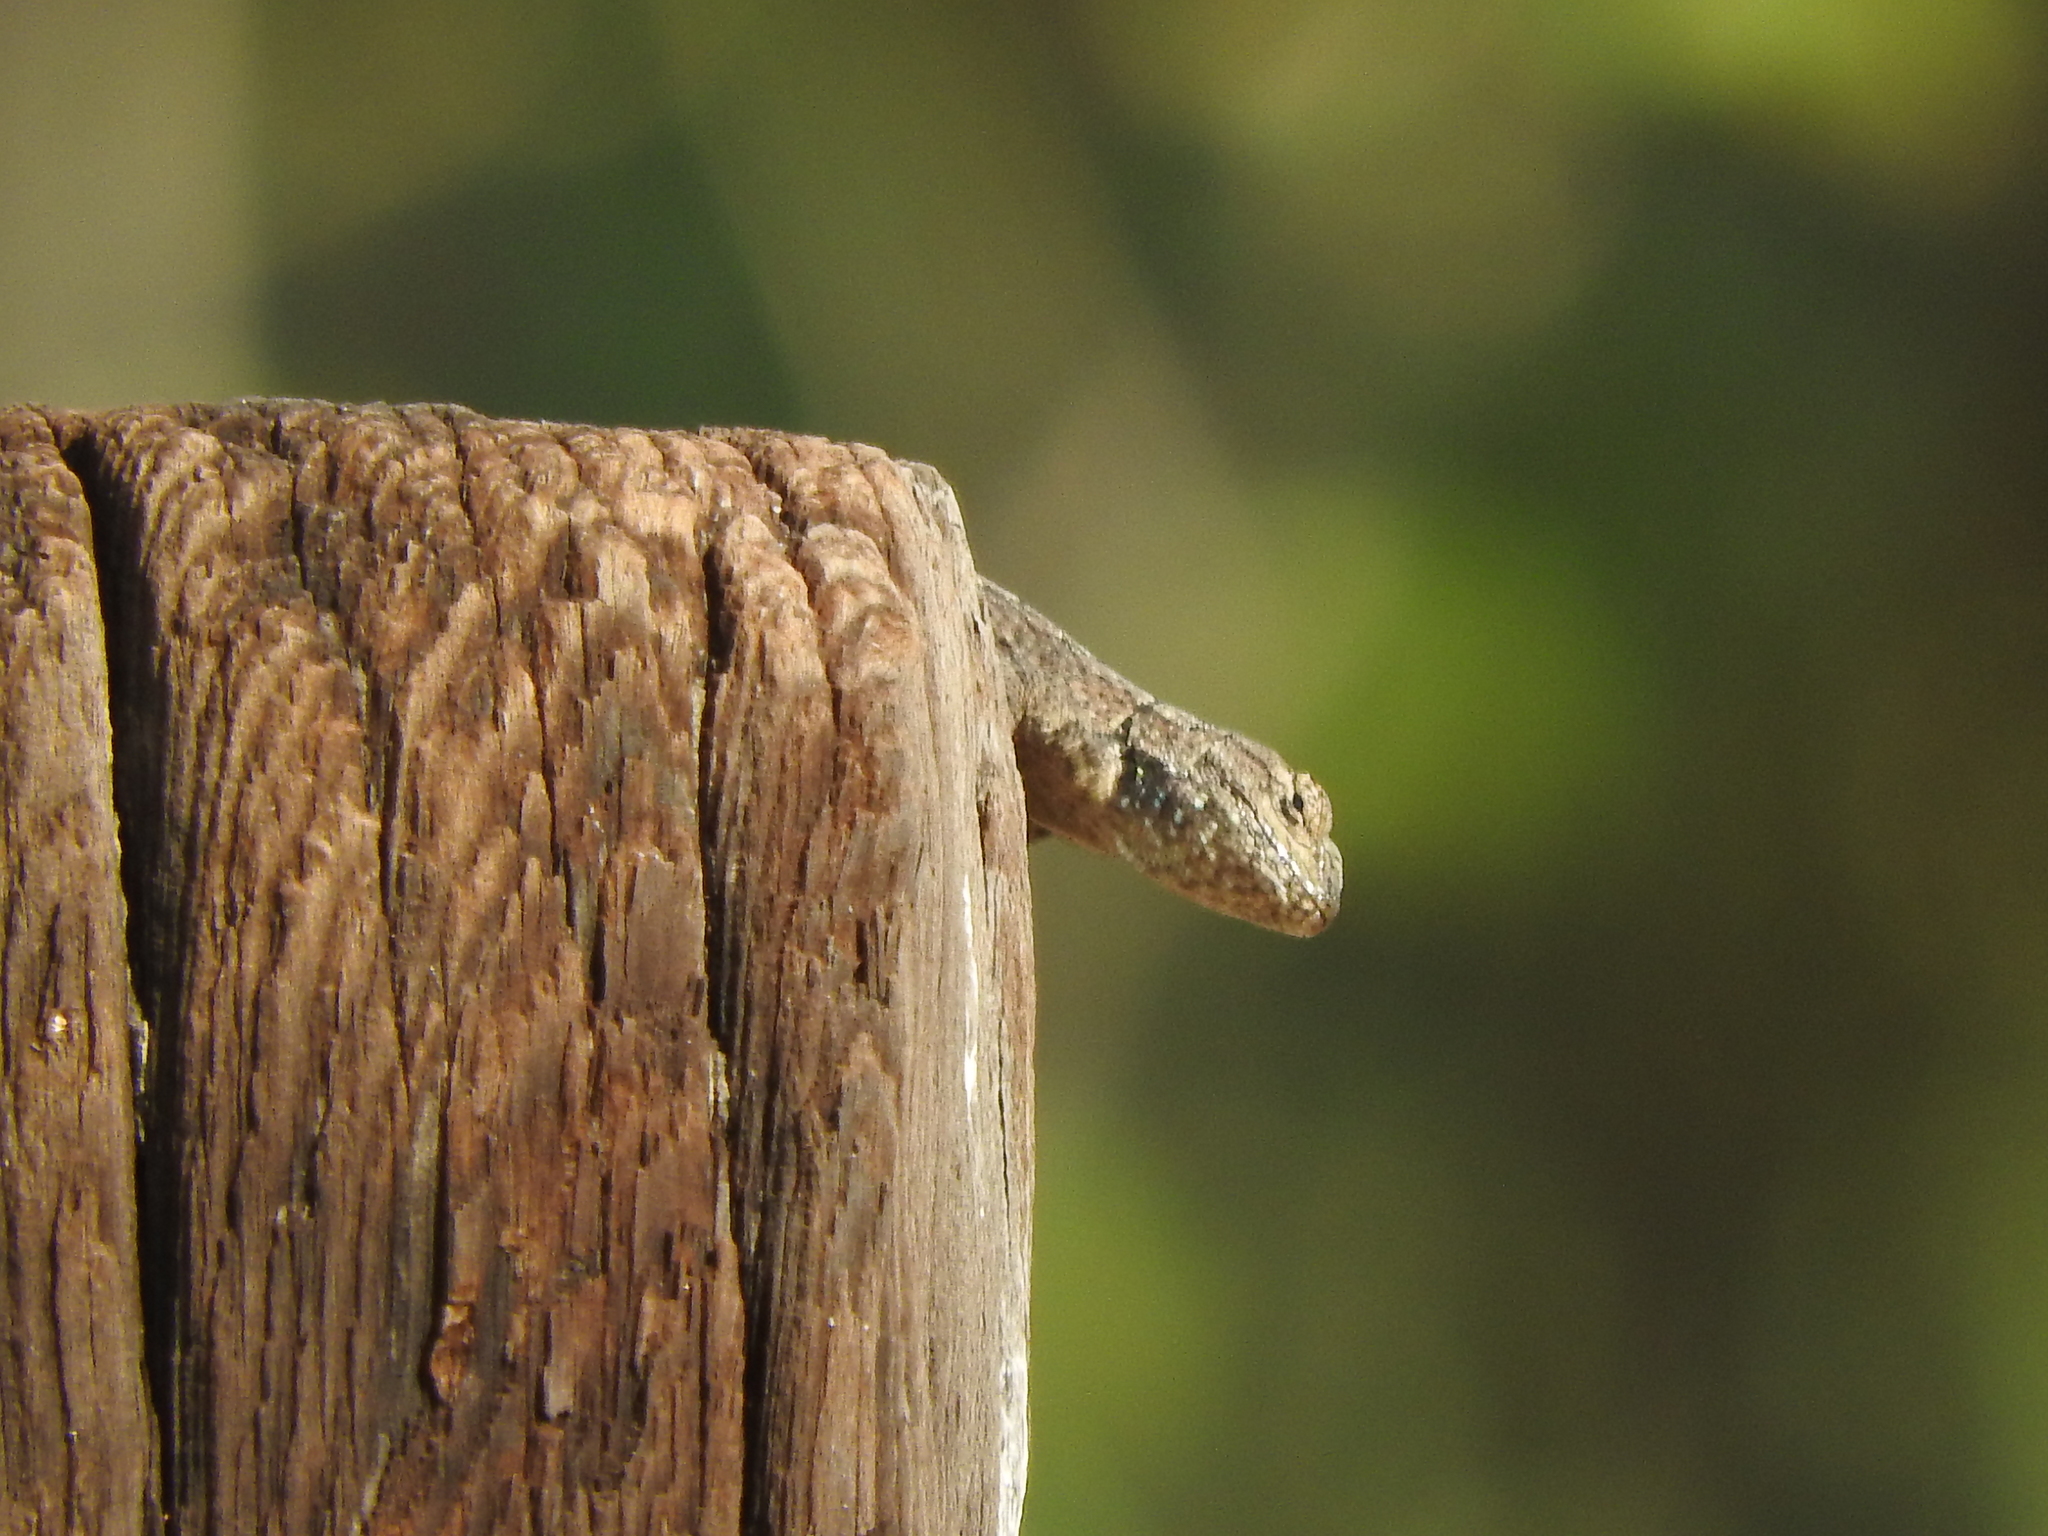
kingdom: Animalia
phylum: Chordata
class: Squamata
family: Phrynosomatidae
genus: Sceloporus
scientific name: Sceloporus grammicus
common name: Mesquite lizard
